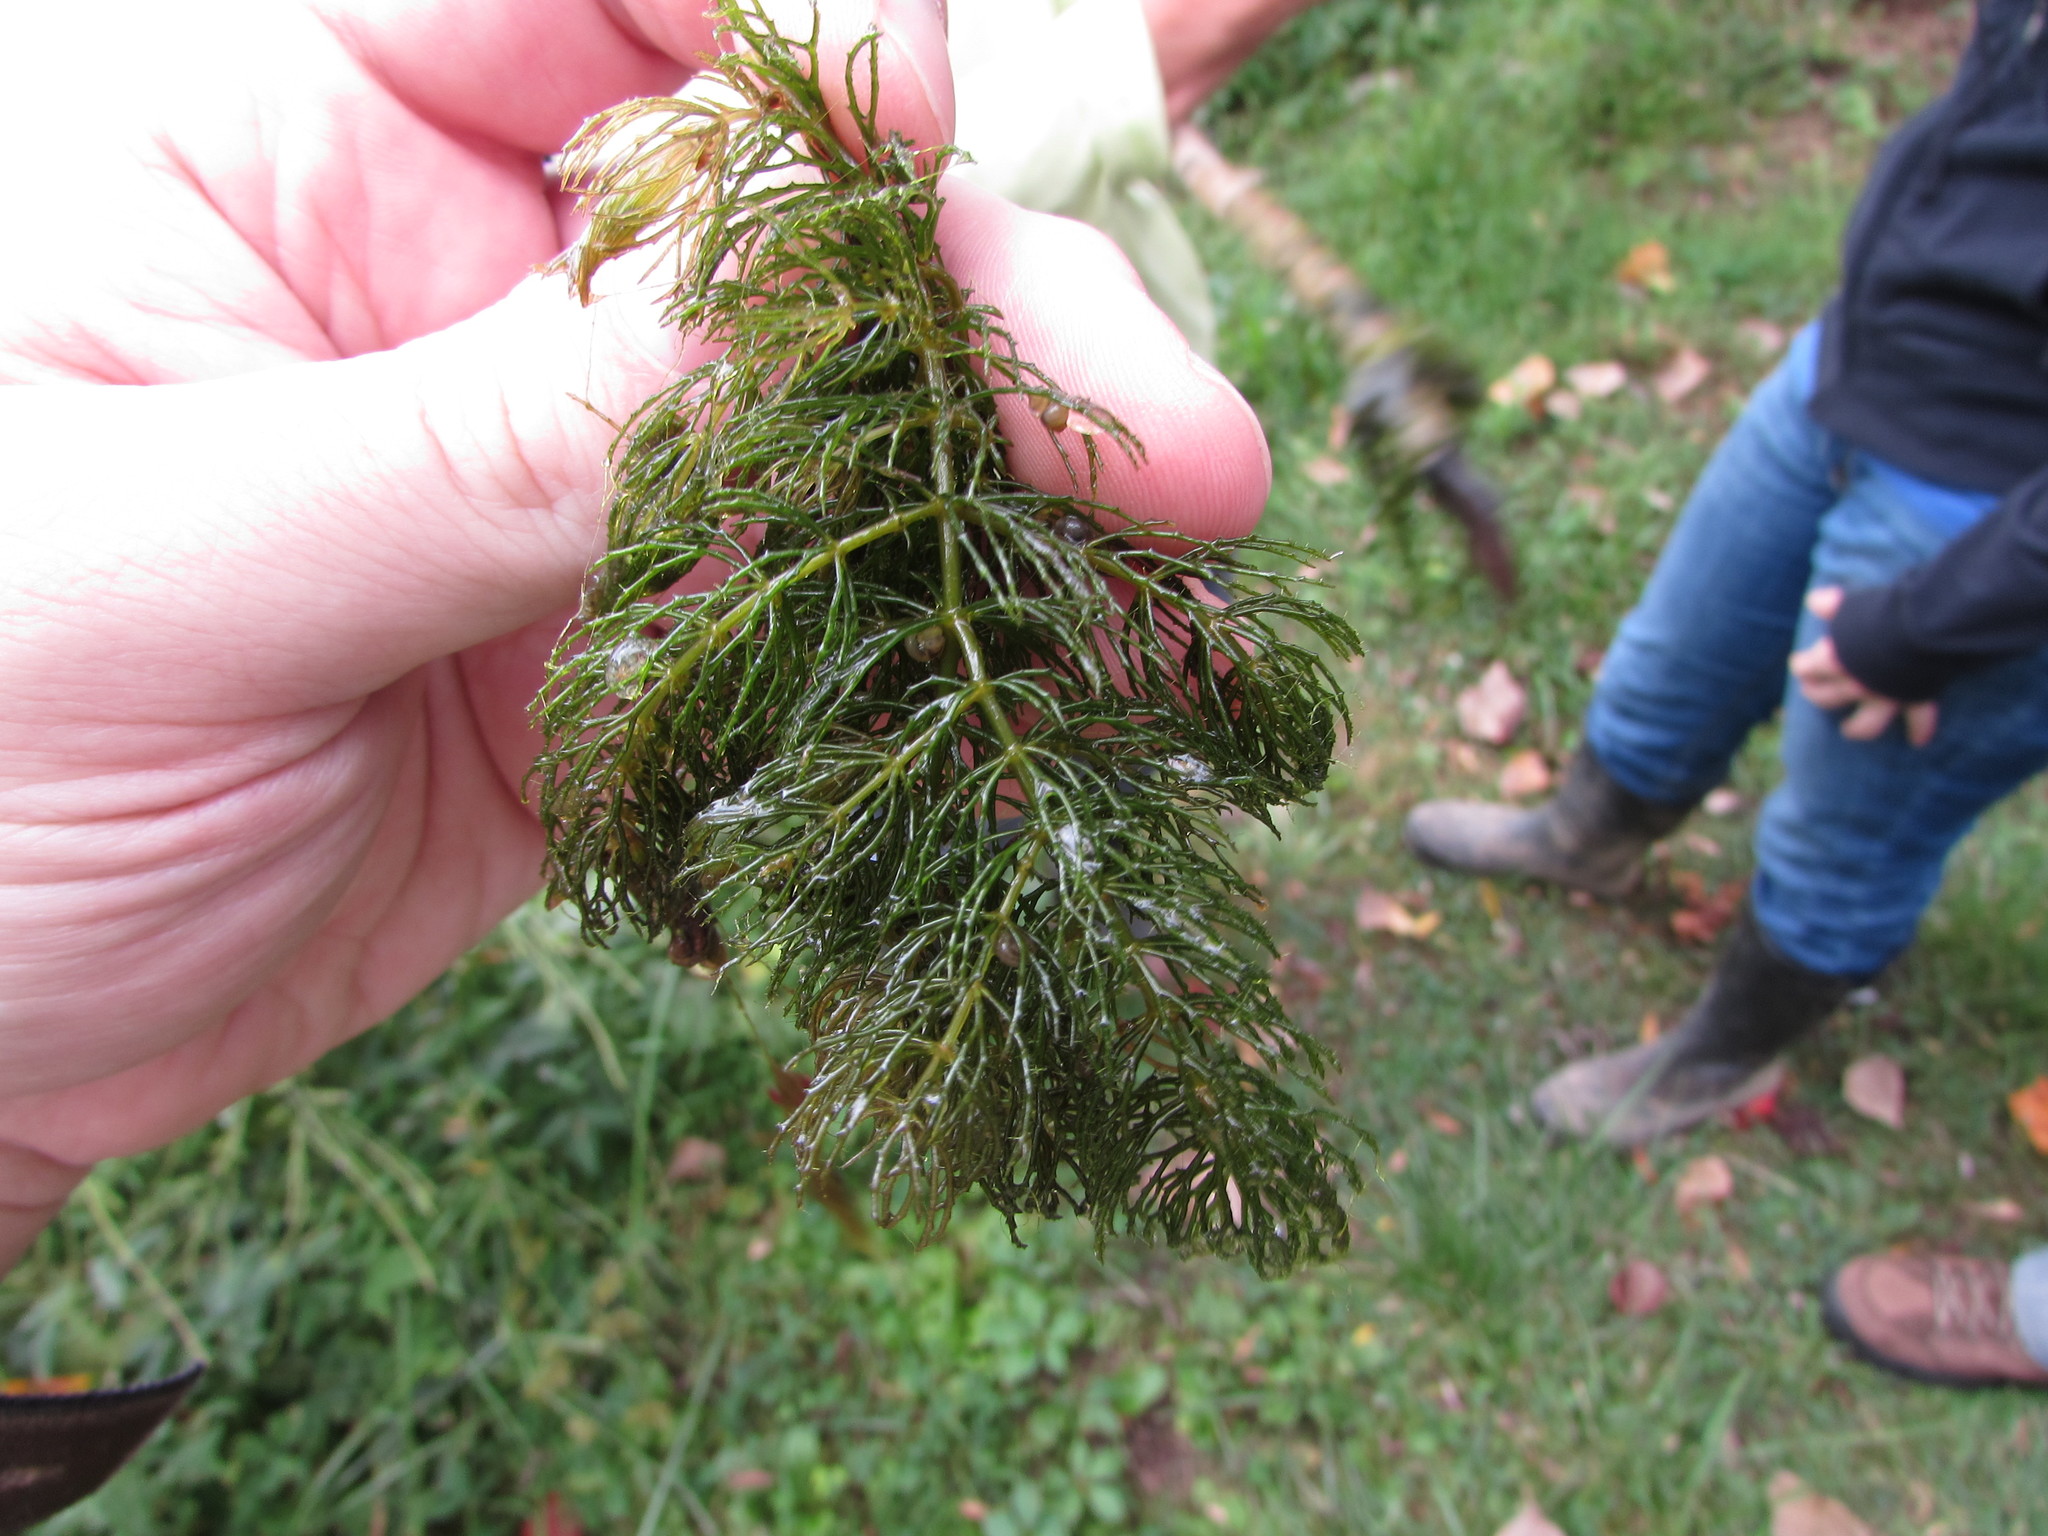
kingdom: Plantae
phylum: Tracheophyta
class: Magnoliopsida
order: Ceratophyllales
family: Ceratophyllaceae
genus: Ceratophyllum
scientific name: Ceratophyllum demersum
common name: Rigid hornwort
